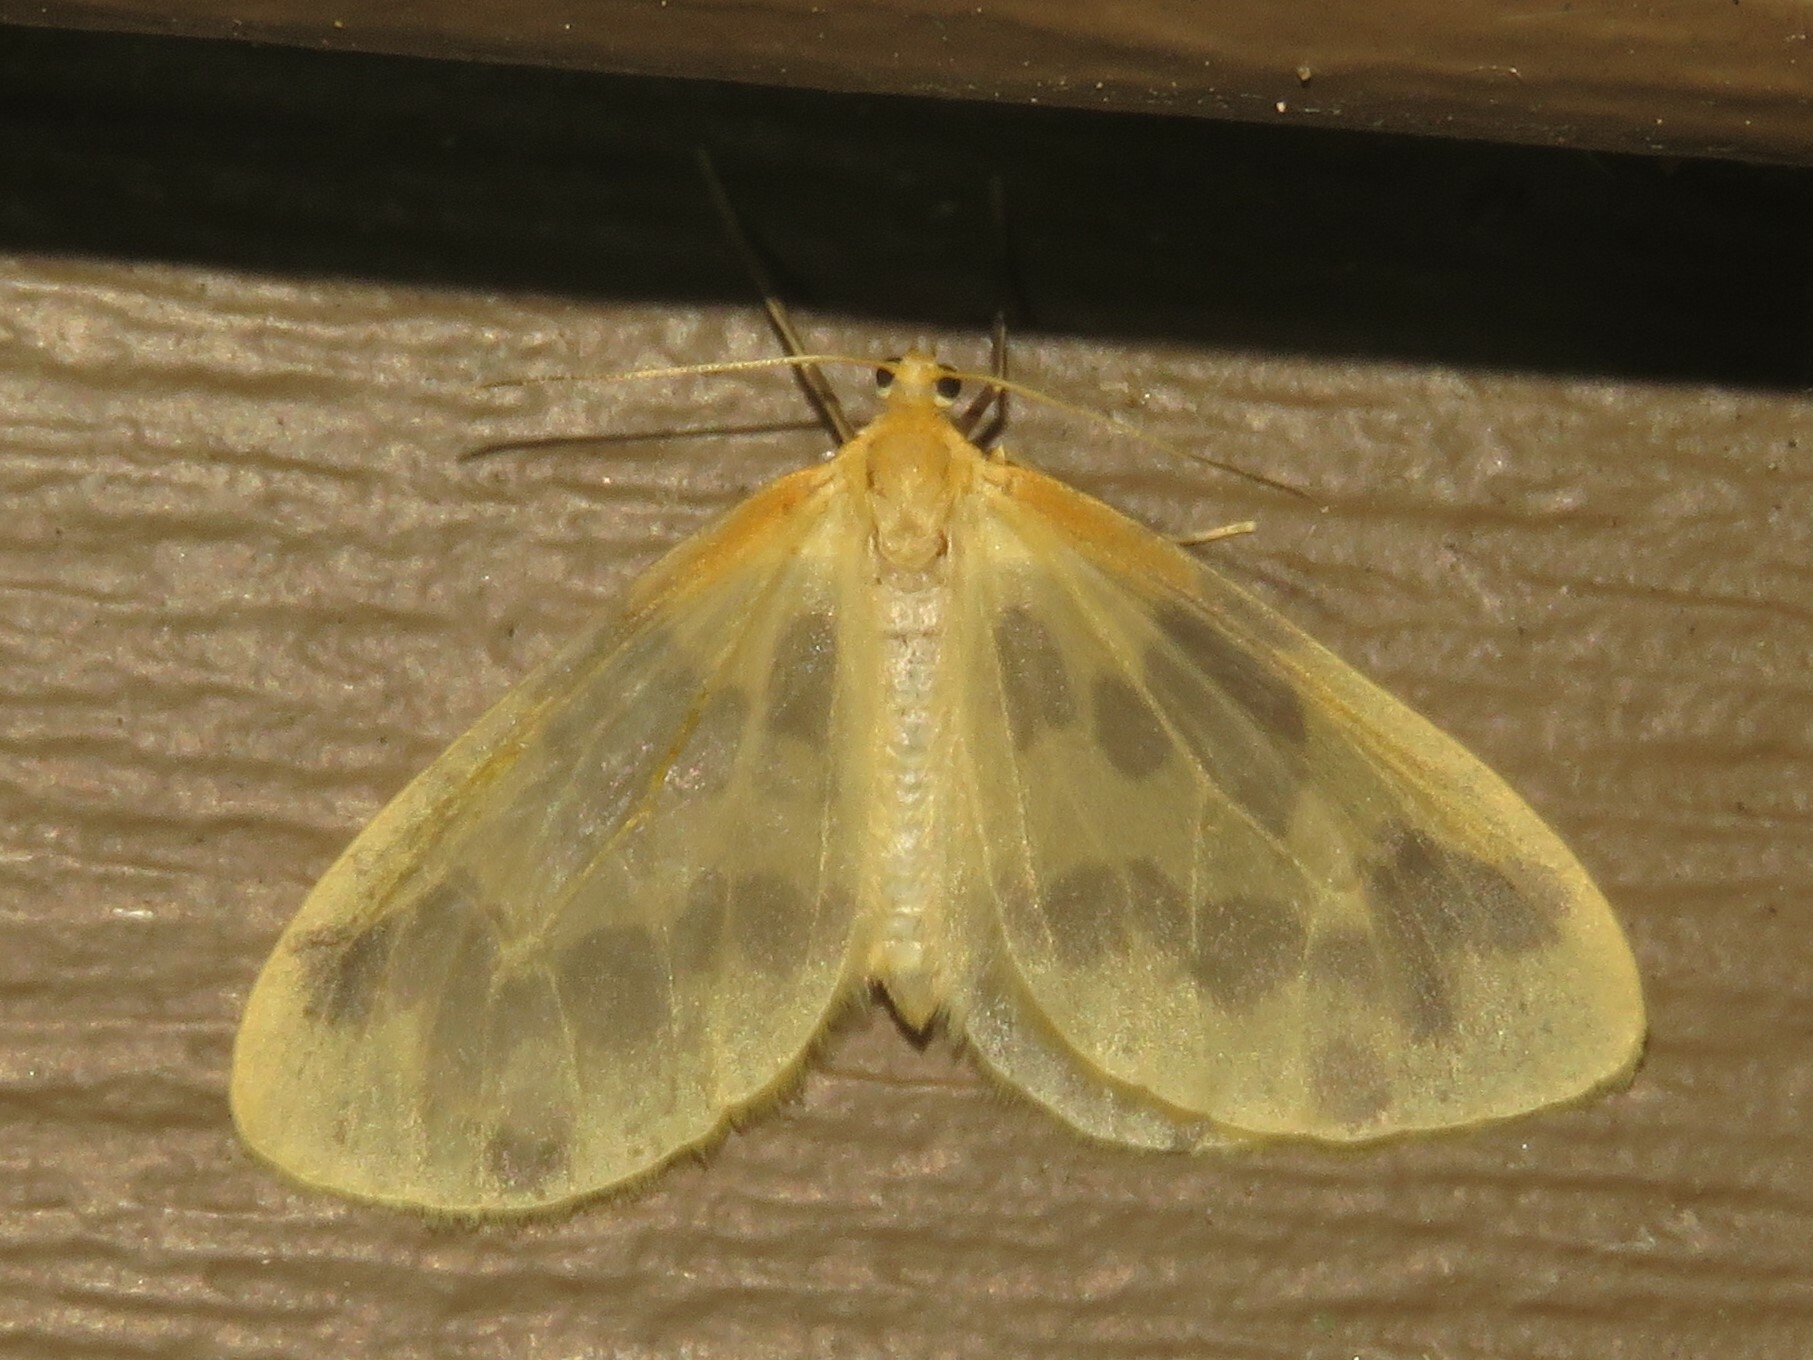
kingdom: Animalia
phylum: Arthropoda
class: Insecta
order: Lepidoptera
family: Geometridae
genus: Eubaphe
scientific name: Eubaphe mendica
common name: Beggar
